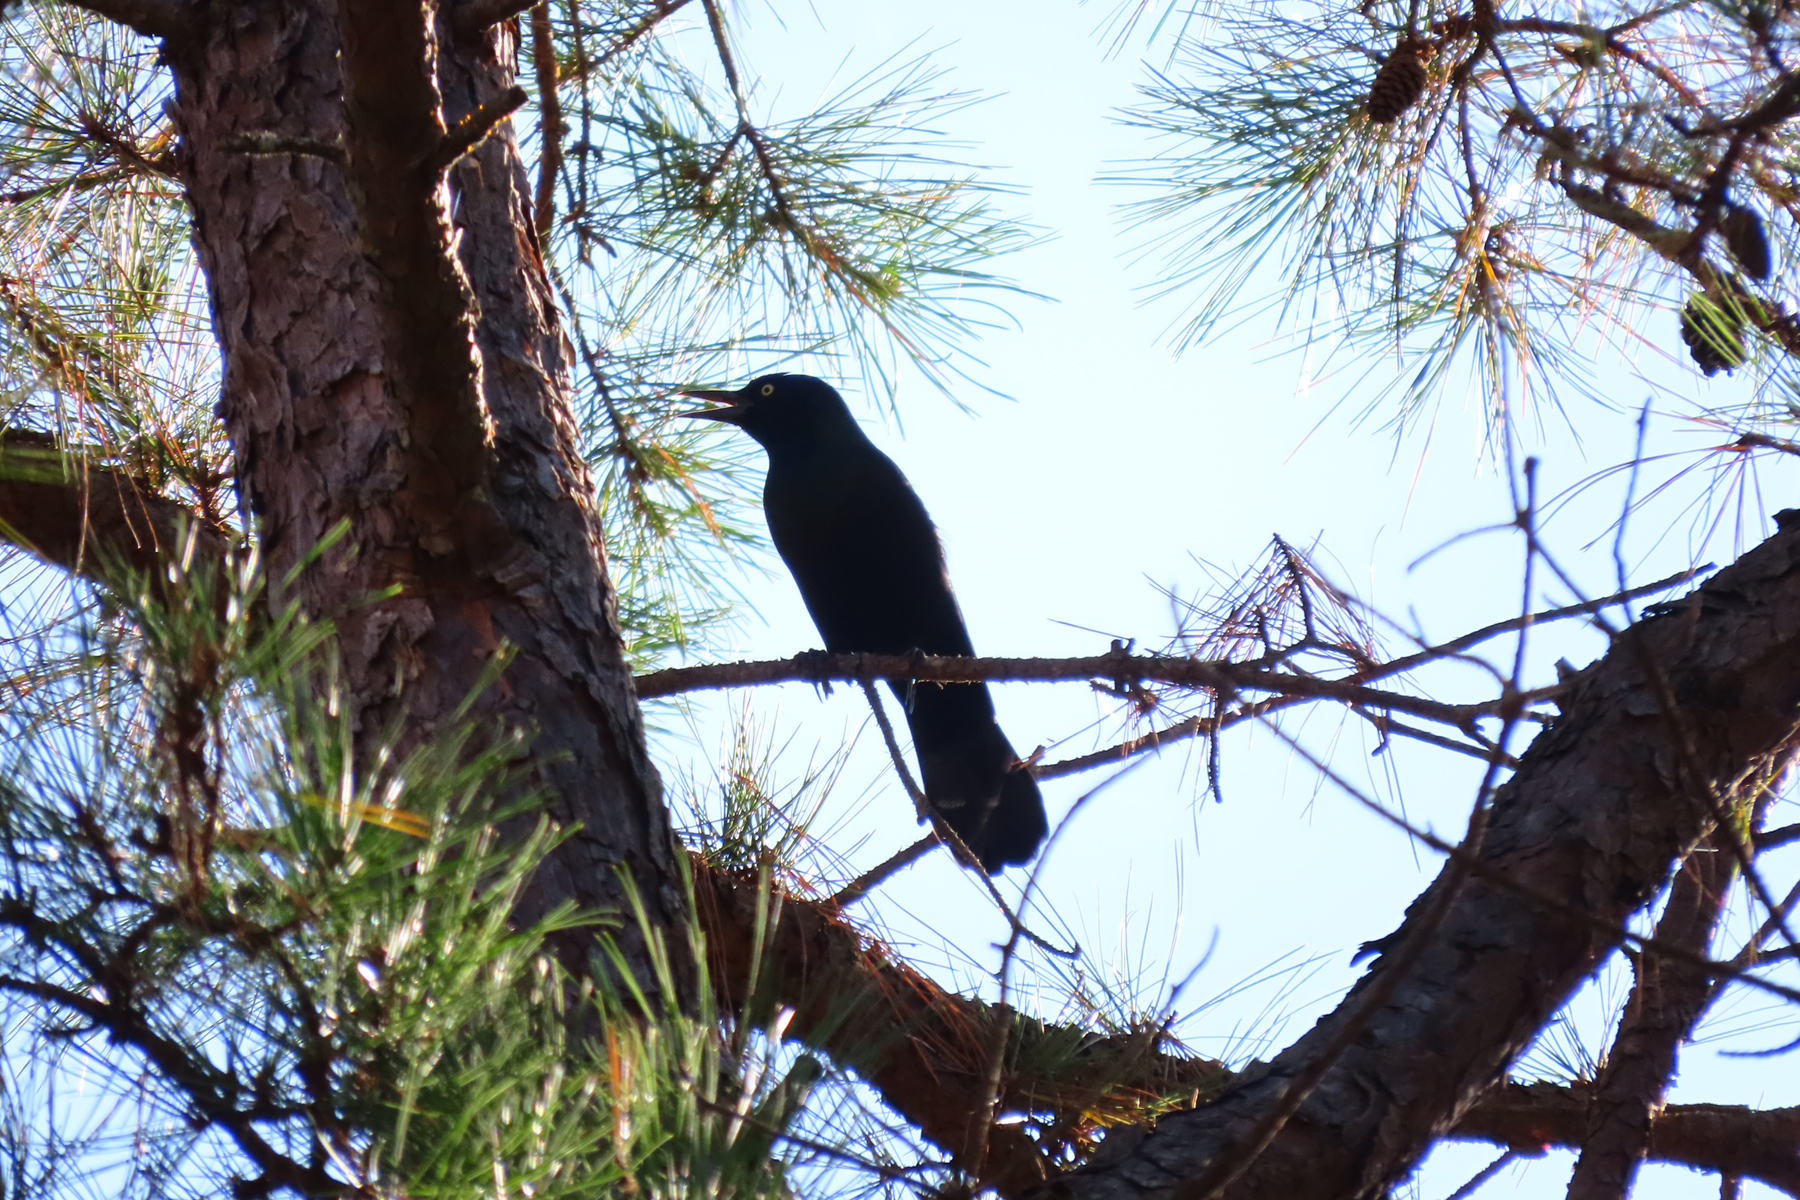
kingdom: Animalia
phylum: Chordata
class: Aves
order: Passeriformes
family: Icteridae
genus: Quiscalus
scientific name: Quiscalus quiscula
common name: Common grackle
